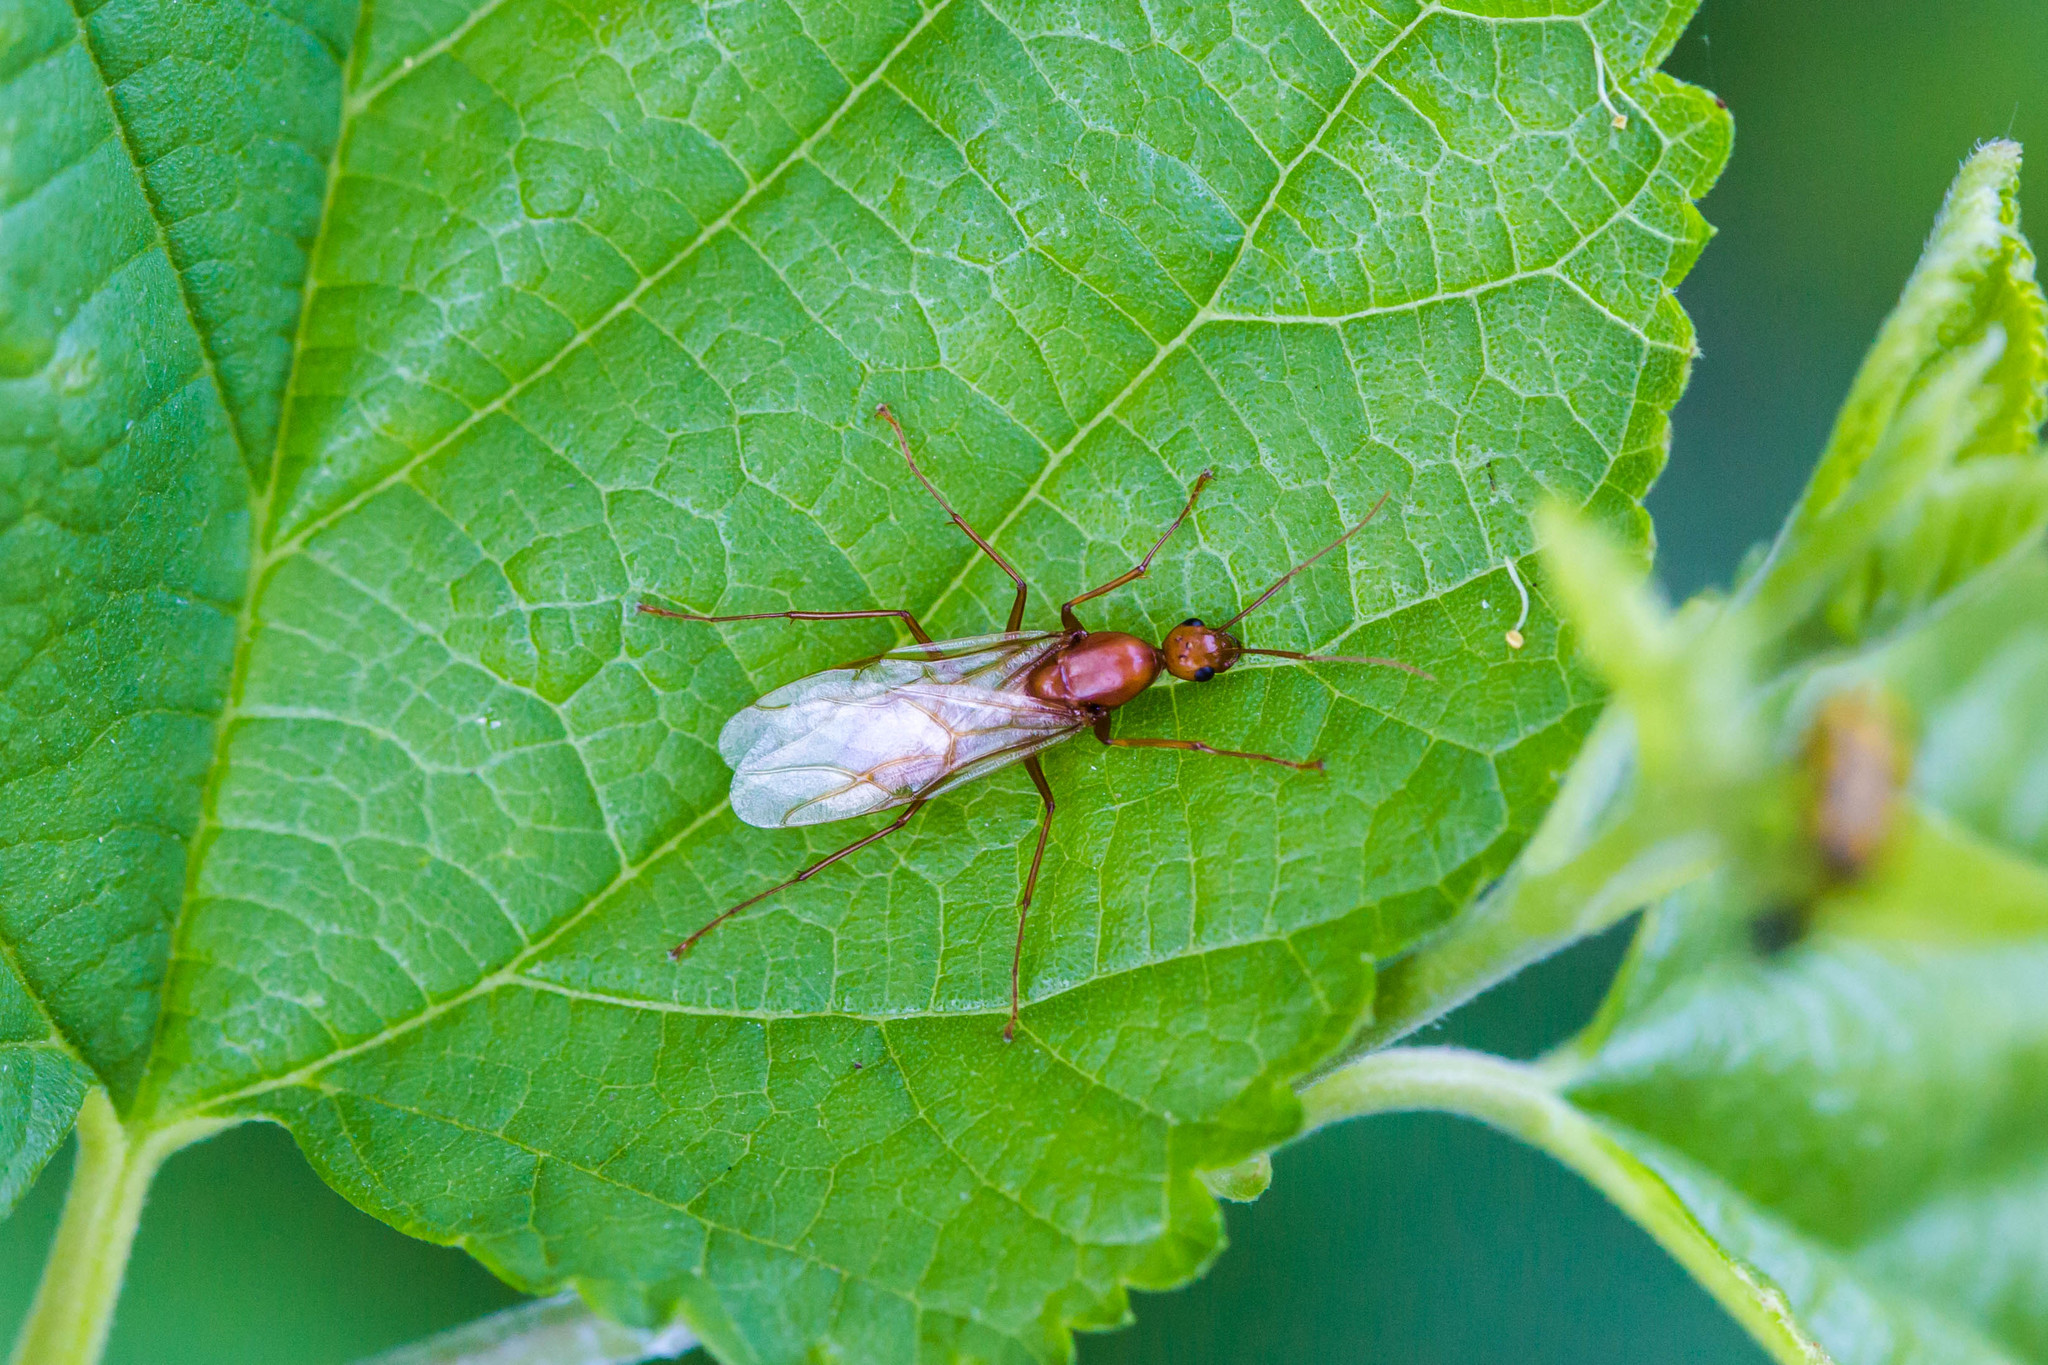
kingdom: Animalia
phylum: Arthropoda
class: Insecta
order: Hymenoptera
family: Formicidae
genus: Camponotus
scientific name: Camponotus castaneus
